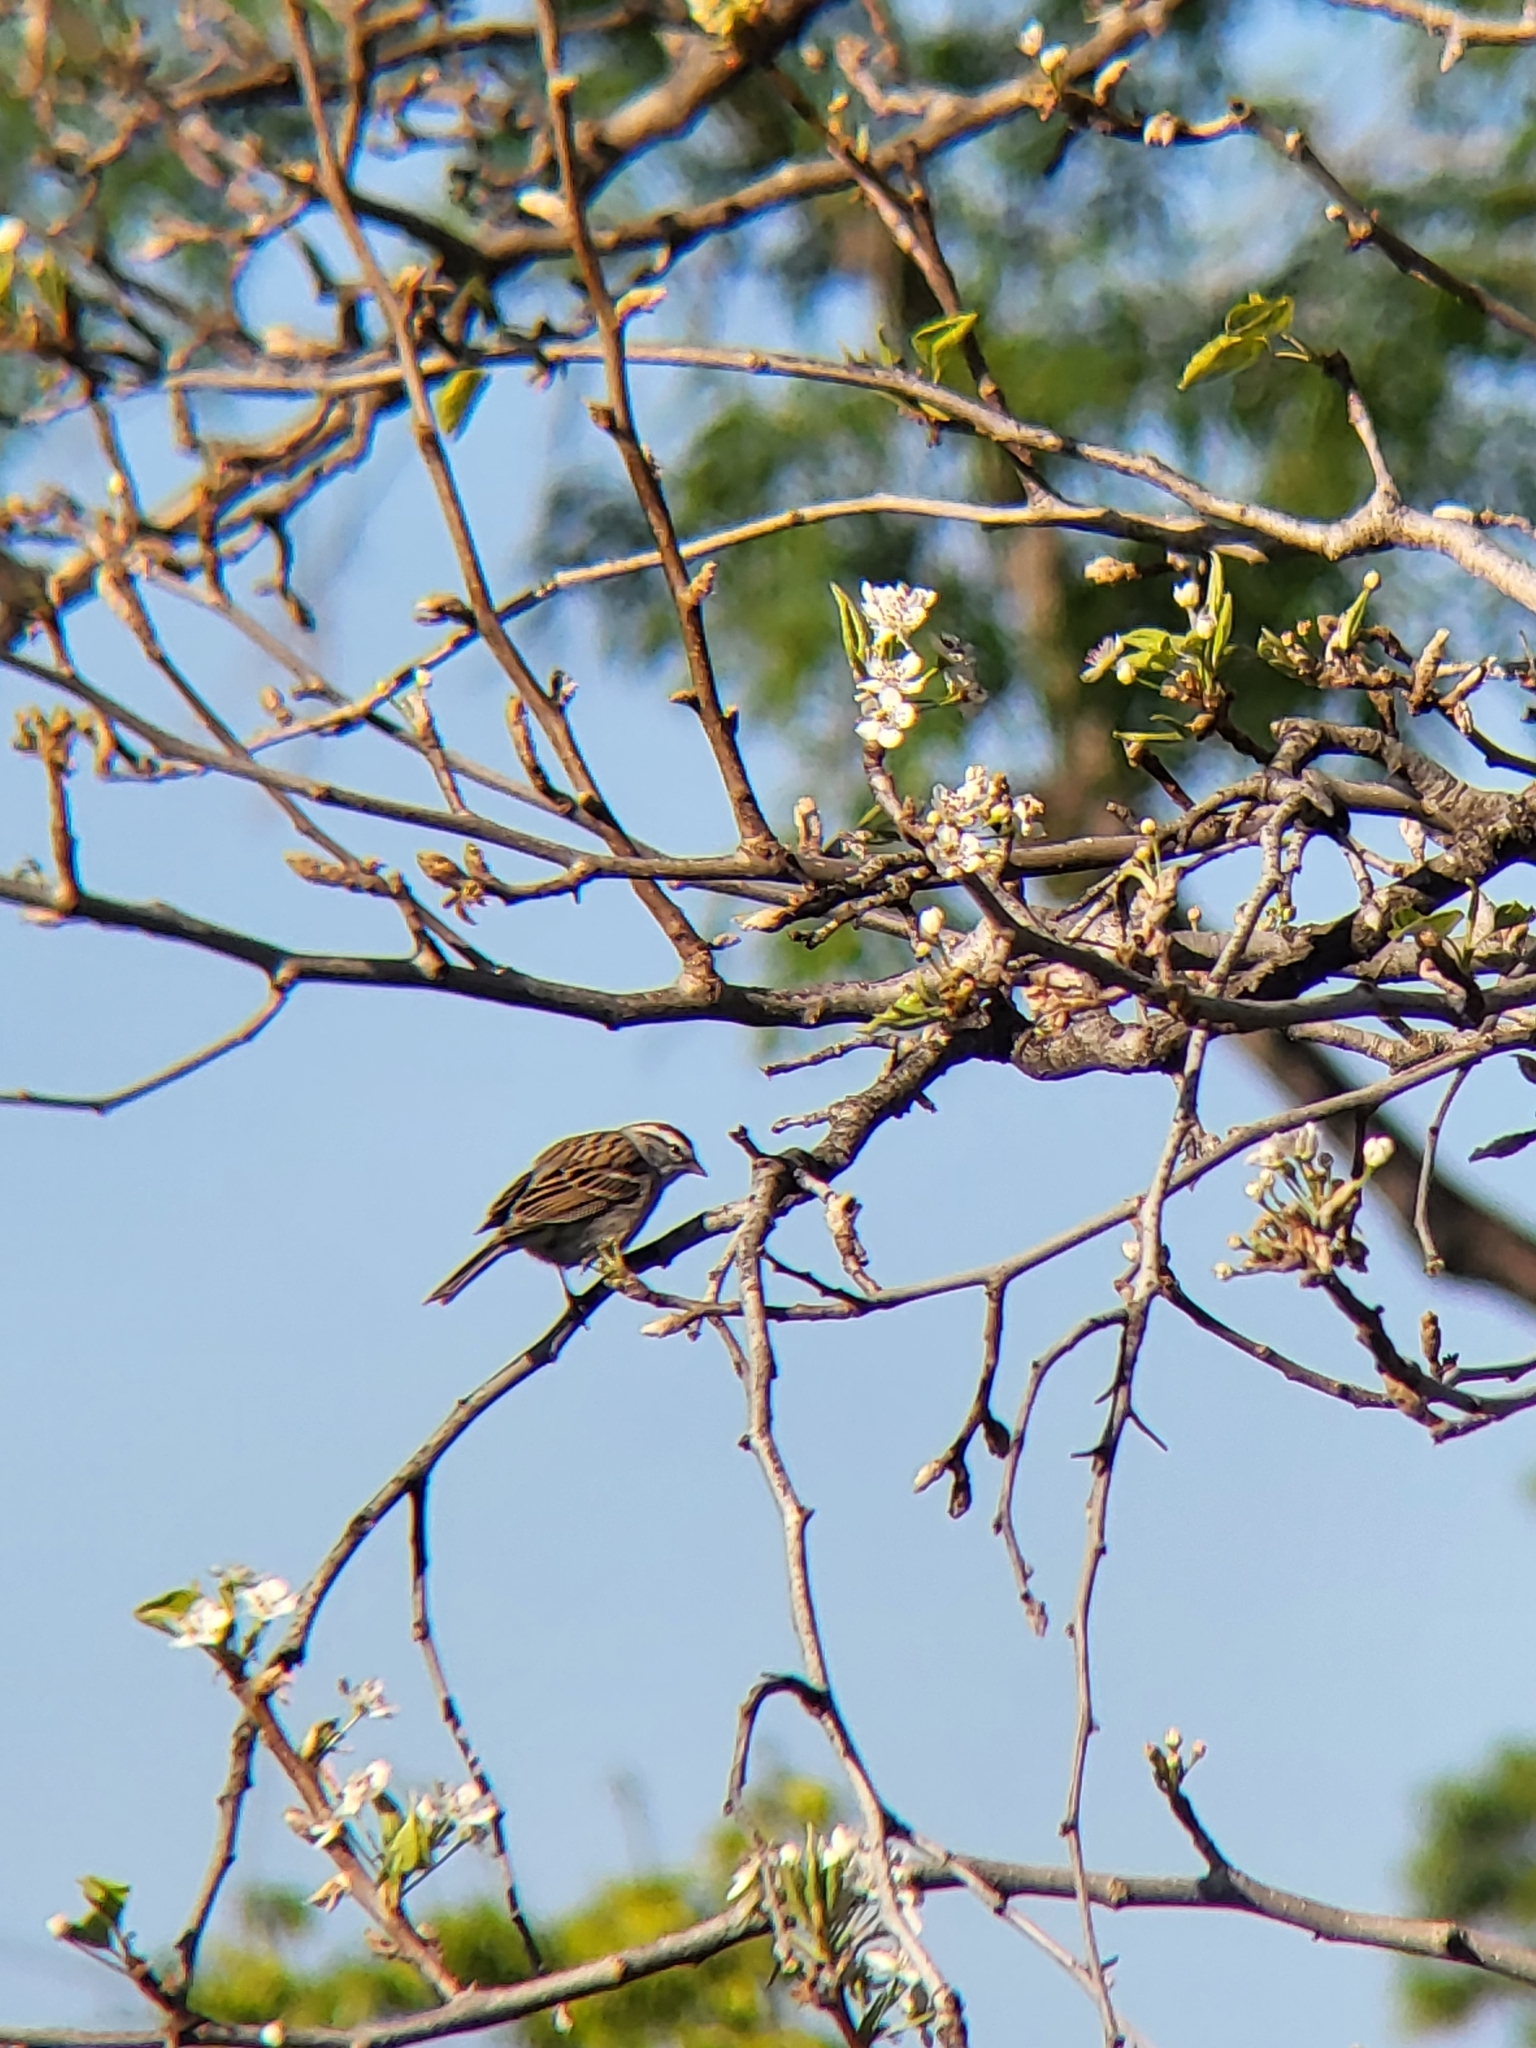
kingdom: Animalia
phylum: Chordata
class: Aves
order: Passeriformes
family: Passerellidae
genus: Spizella
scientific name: Spizella passerina
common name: Chipping sparrow
